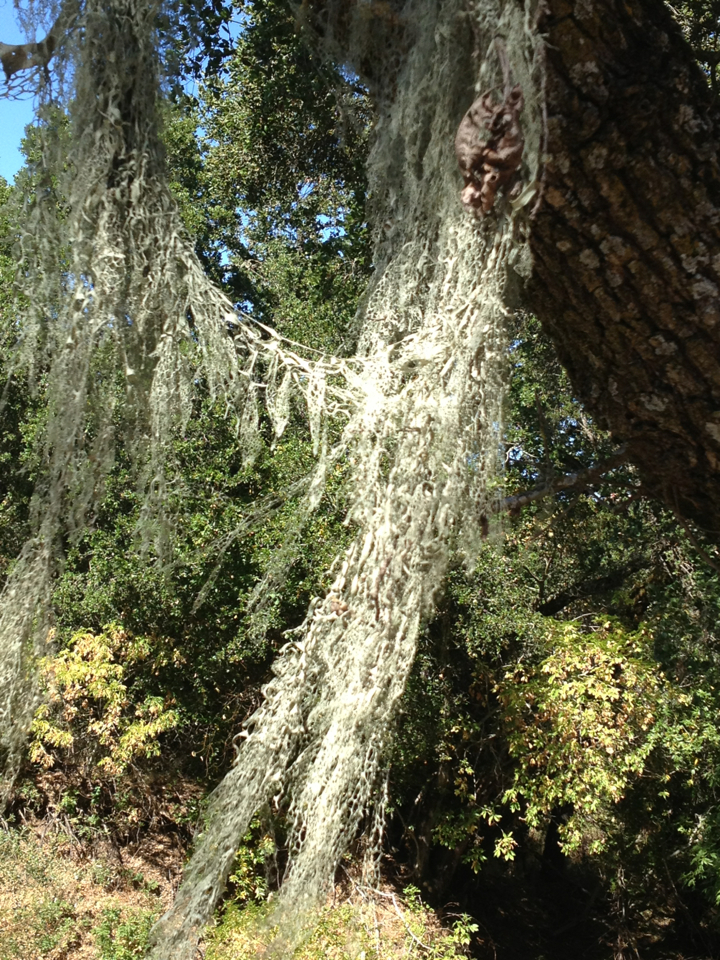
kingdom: Fungi
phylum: Ascomycota
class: Lecanoromycetes
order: Lecanorales
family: Ramalinaceae
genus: Ramalina
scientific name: Ramalina menziesii
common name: Lace lichen
